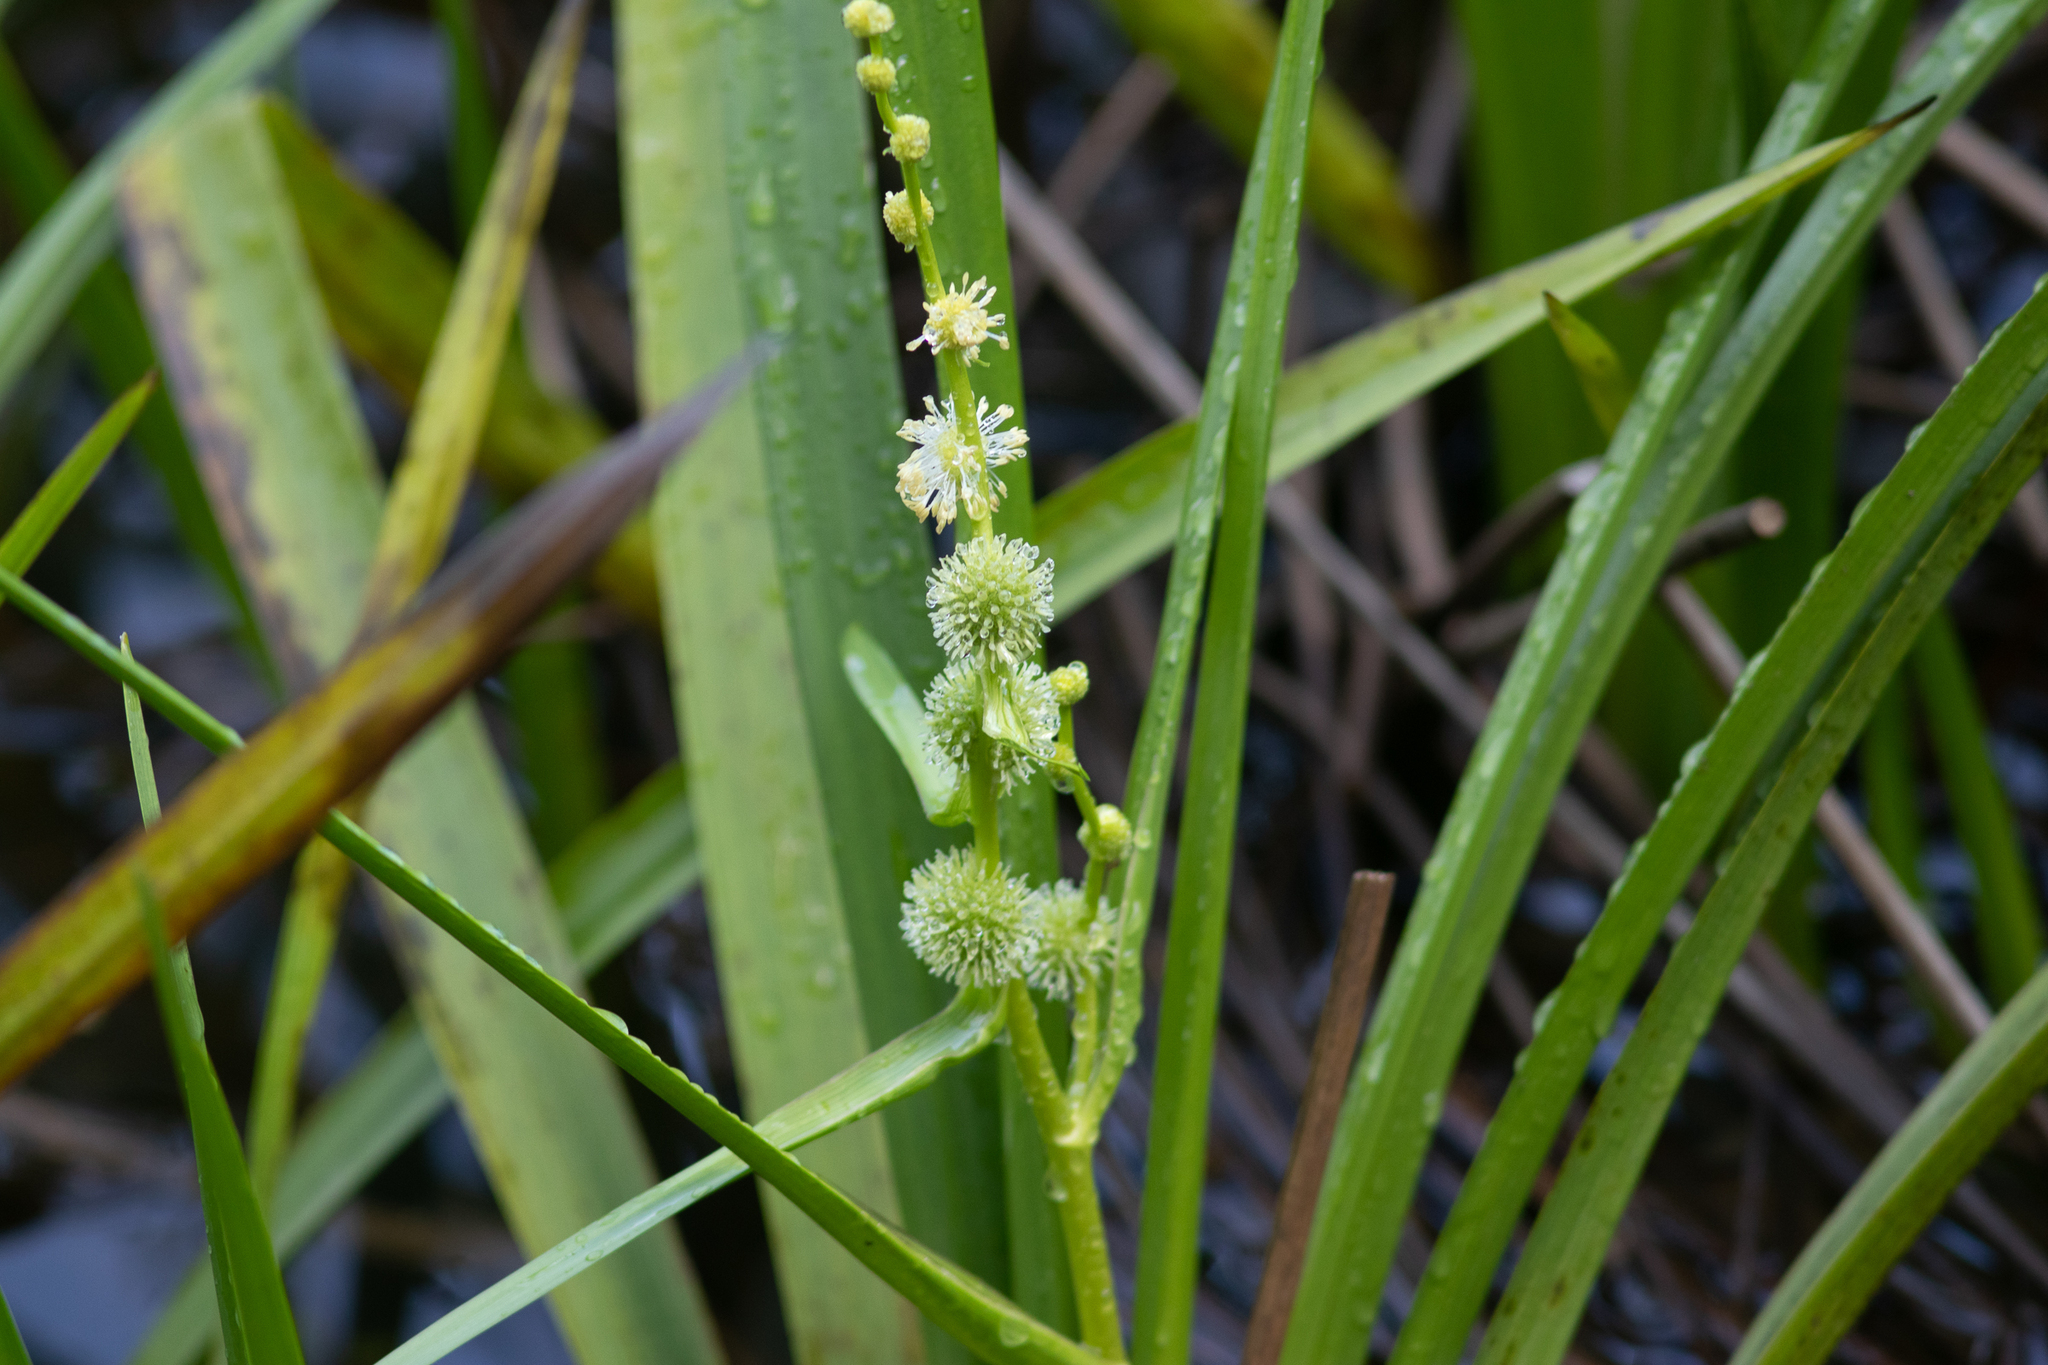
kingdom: Plantae
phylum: Tracheophyta
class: Liliopsida
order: Poales
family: Typhaceae
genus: Sparganium
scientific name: Sparganium americanum
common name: American burreed
